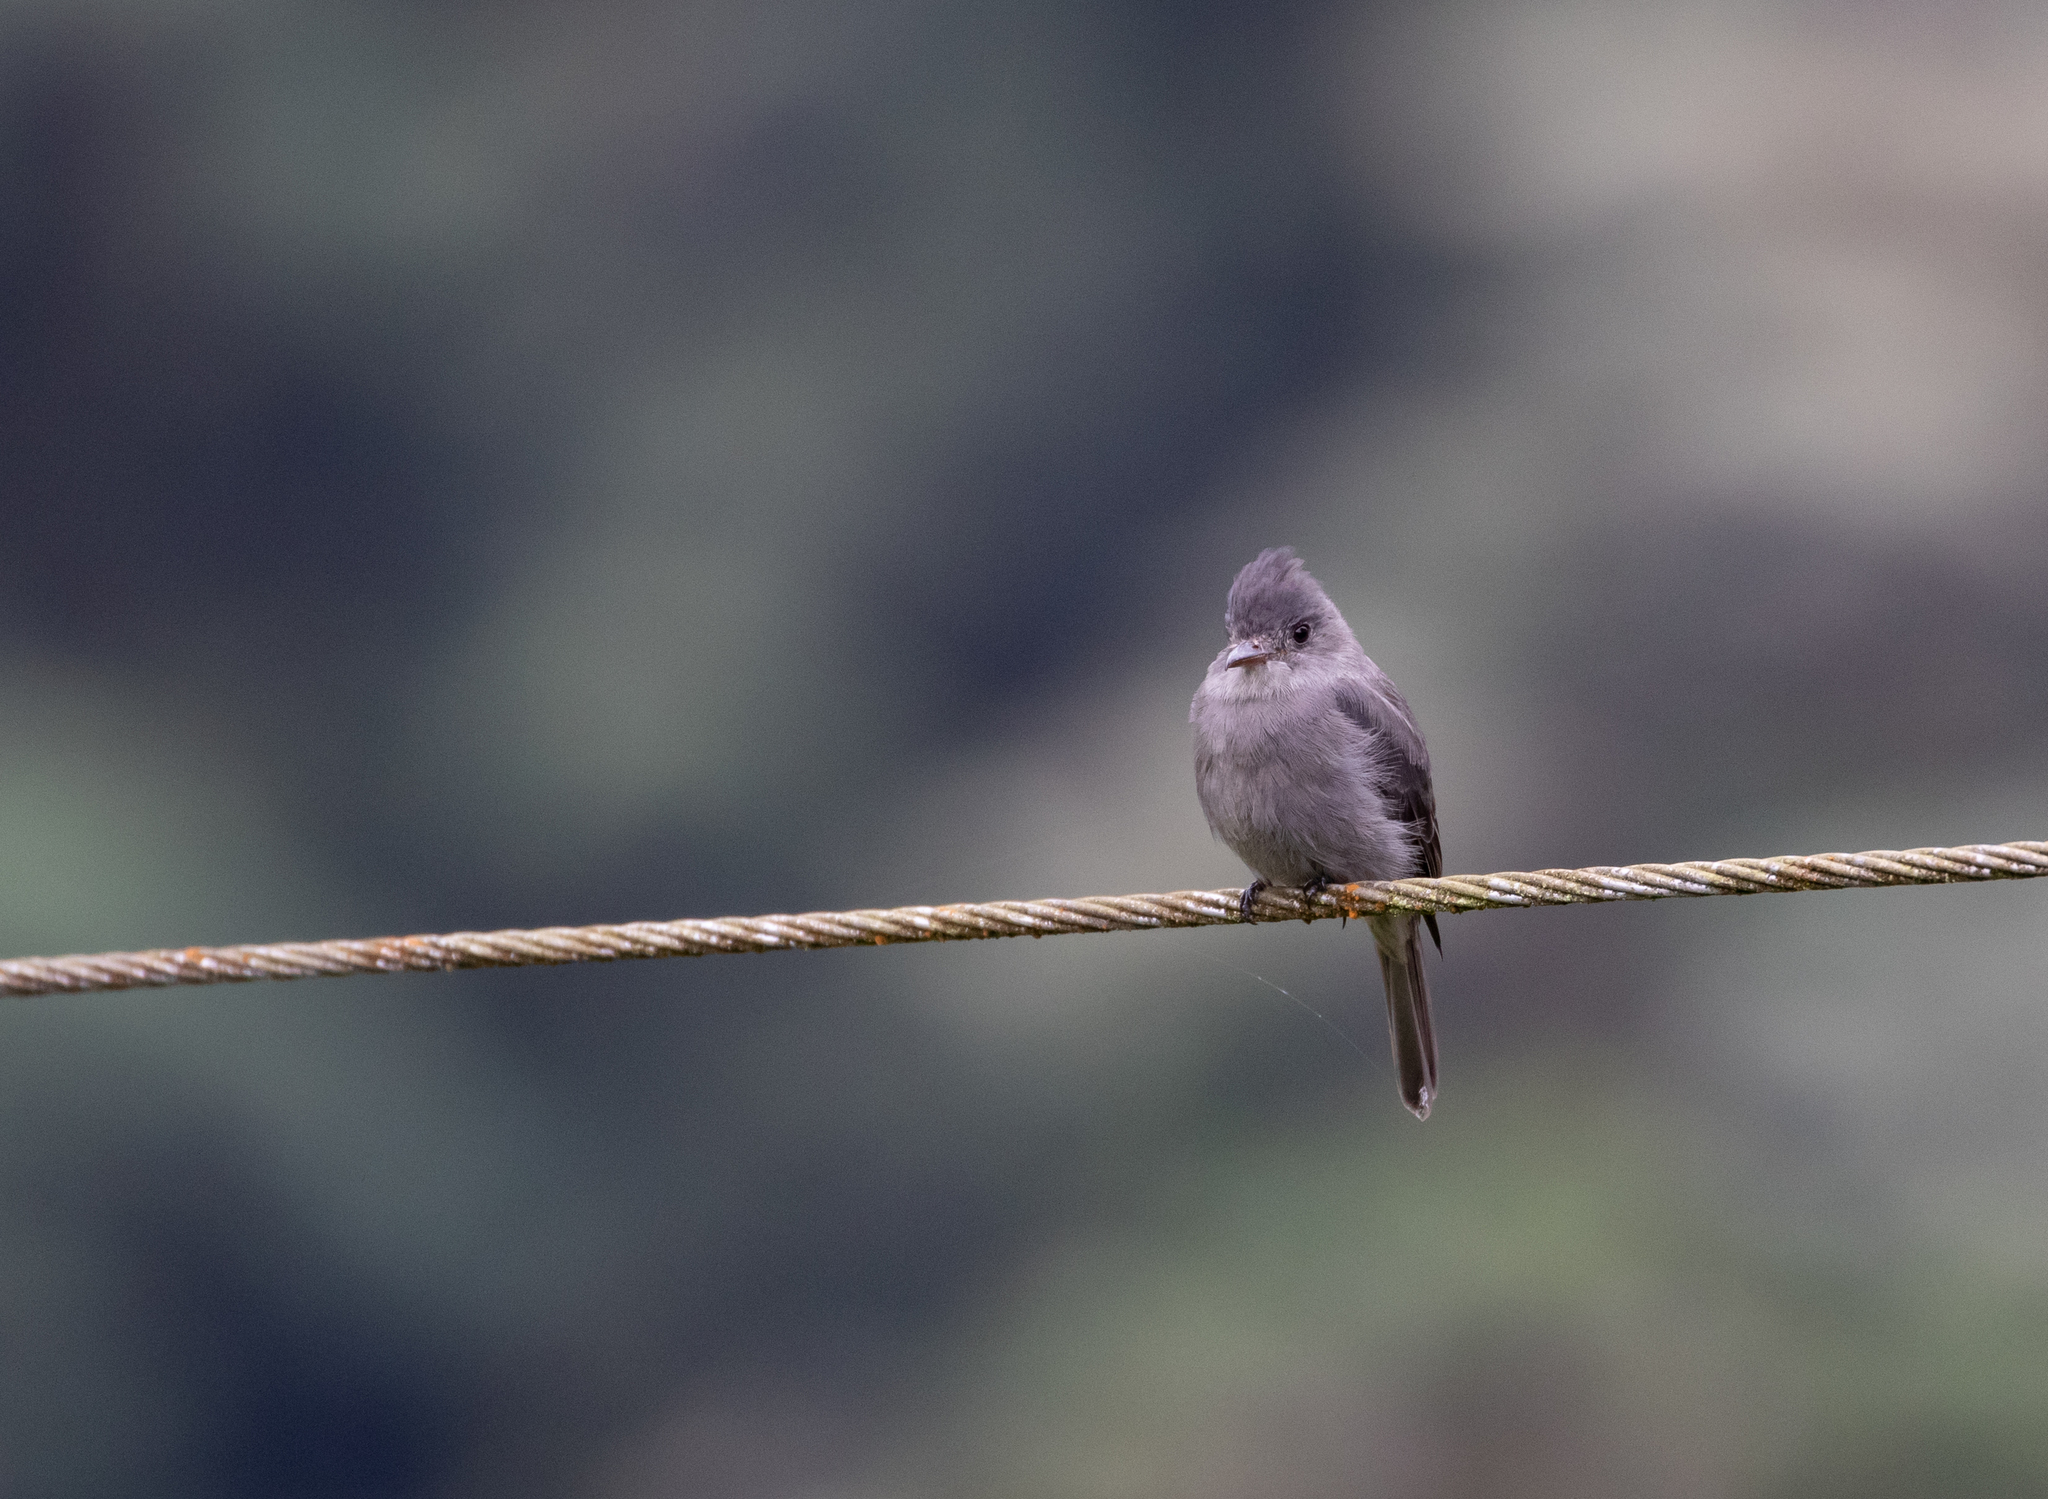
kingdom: Animalia
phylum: Chordata
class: Aves
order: Passeriformes
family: Tyrannidae
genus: Contopus
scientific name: Contopus fumigatus
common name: Smoke-colored pewee
